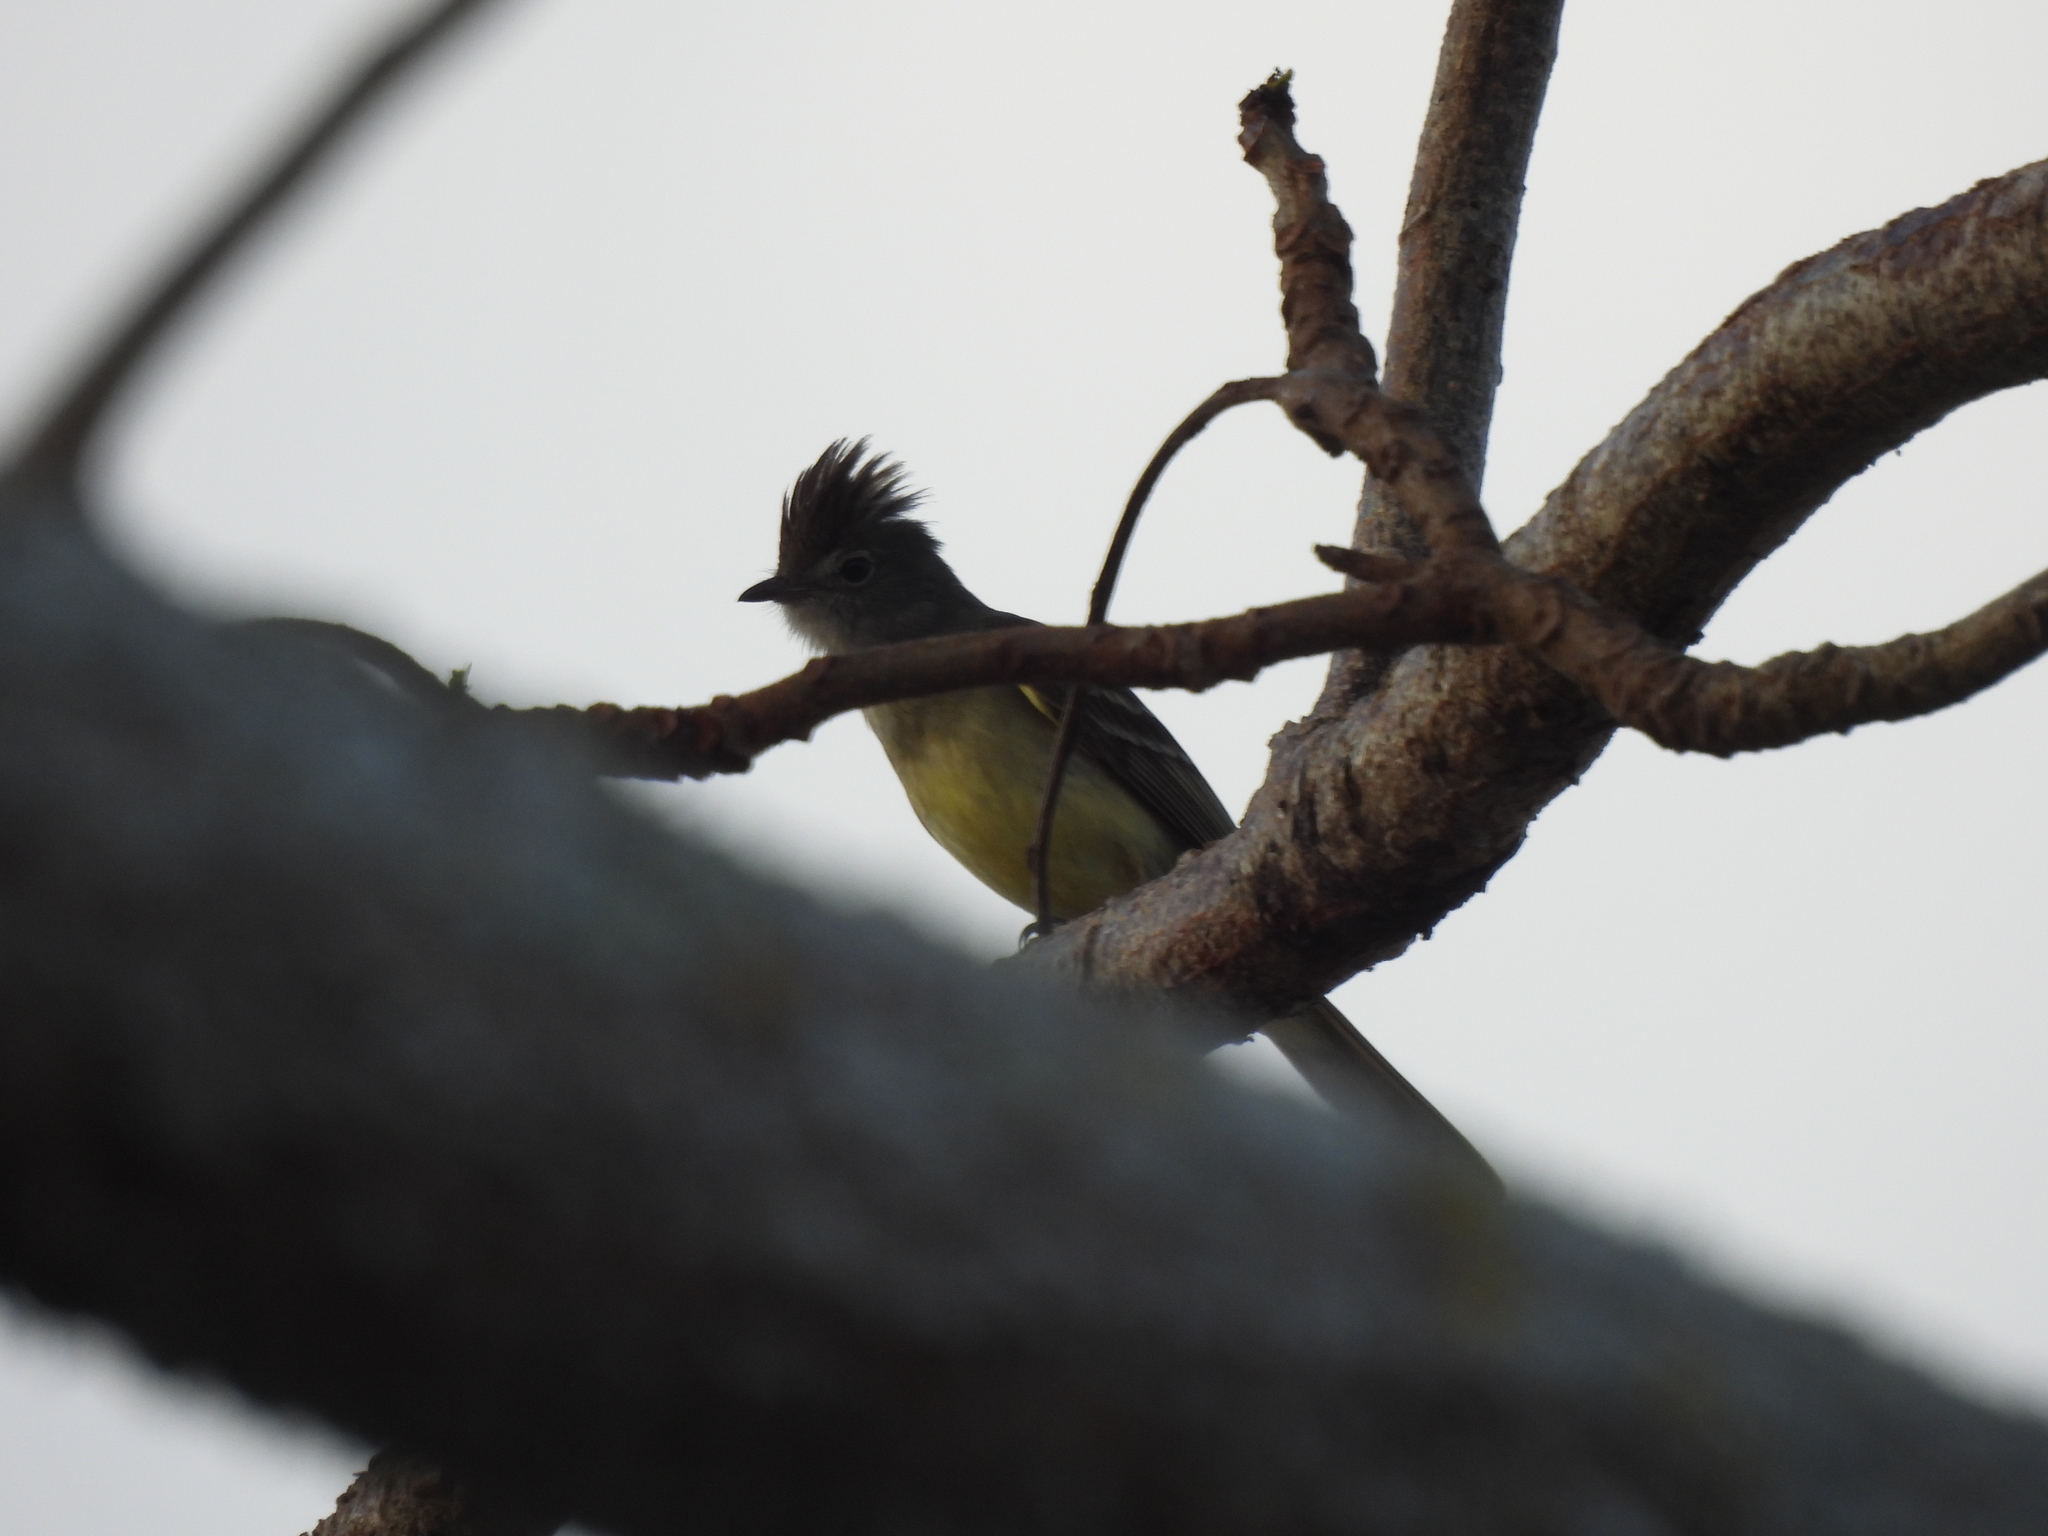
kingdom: Animalia
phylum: Chordata
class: Aves
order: Passeriformes
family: Tyrannidae
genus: Elaenia
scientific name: Elaenia flavogaster
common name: Yellow-bellied elaenia
